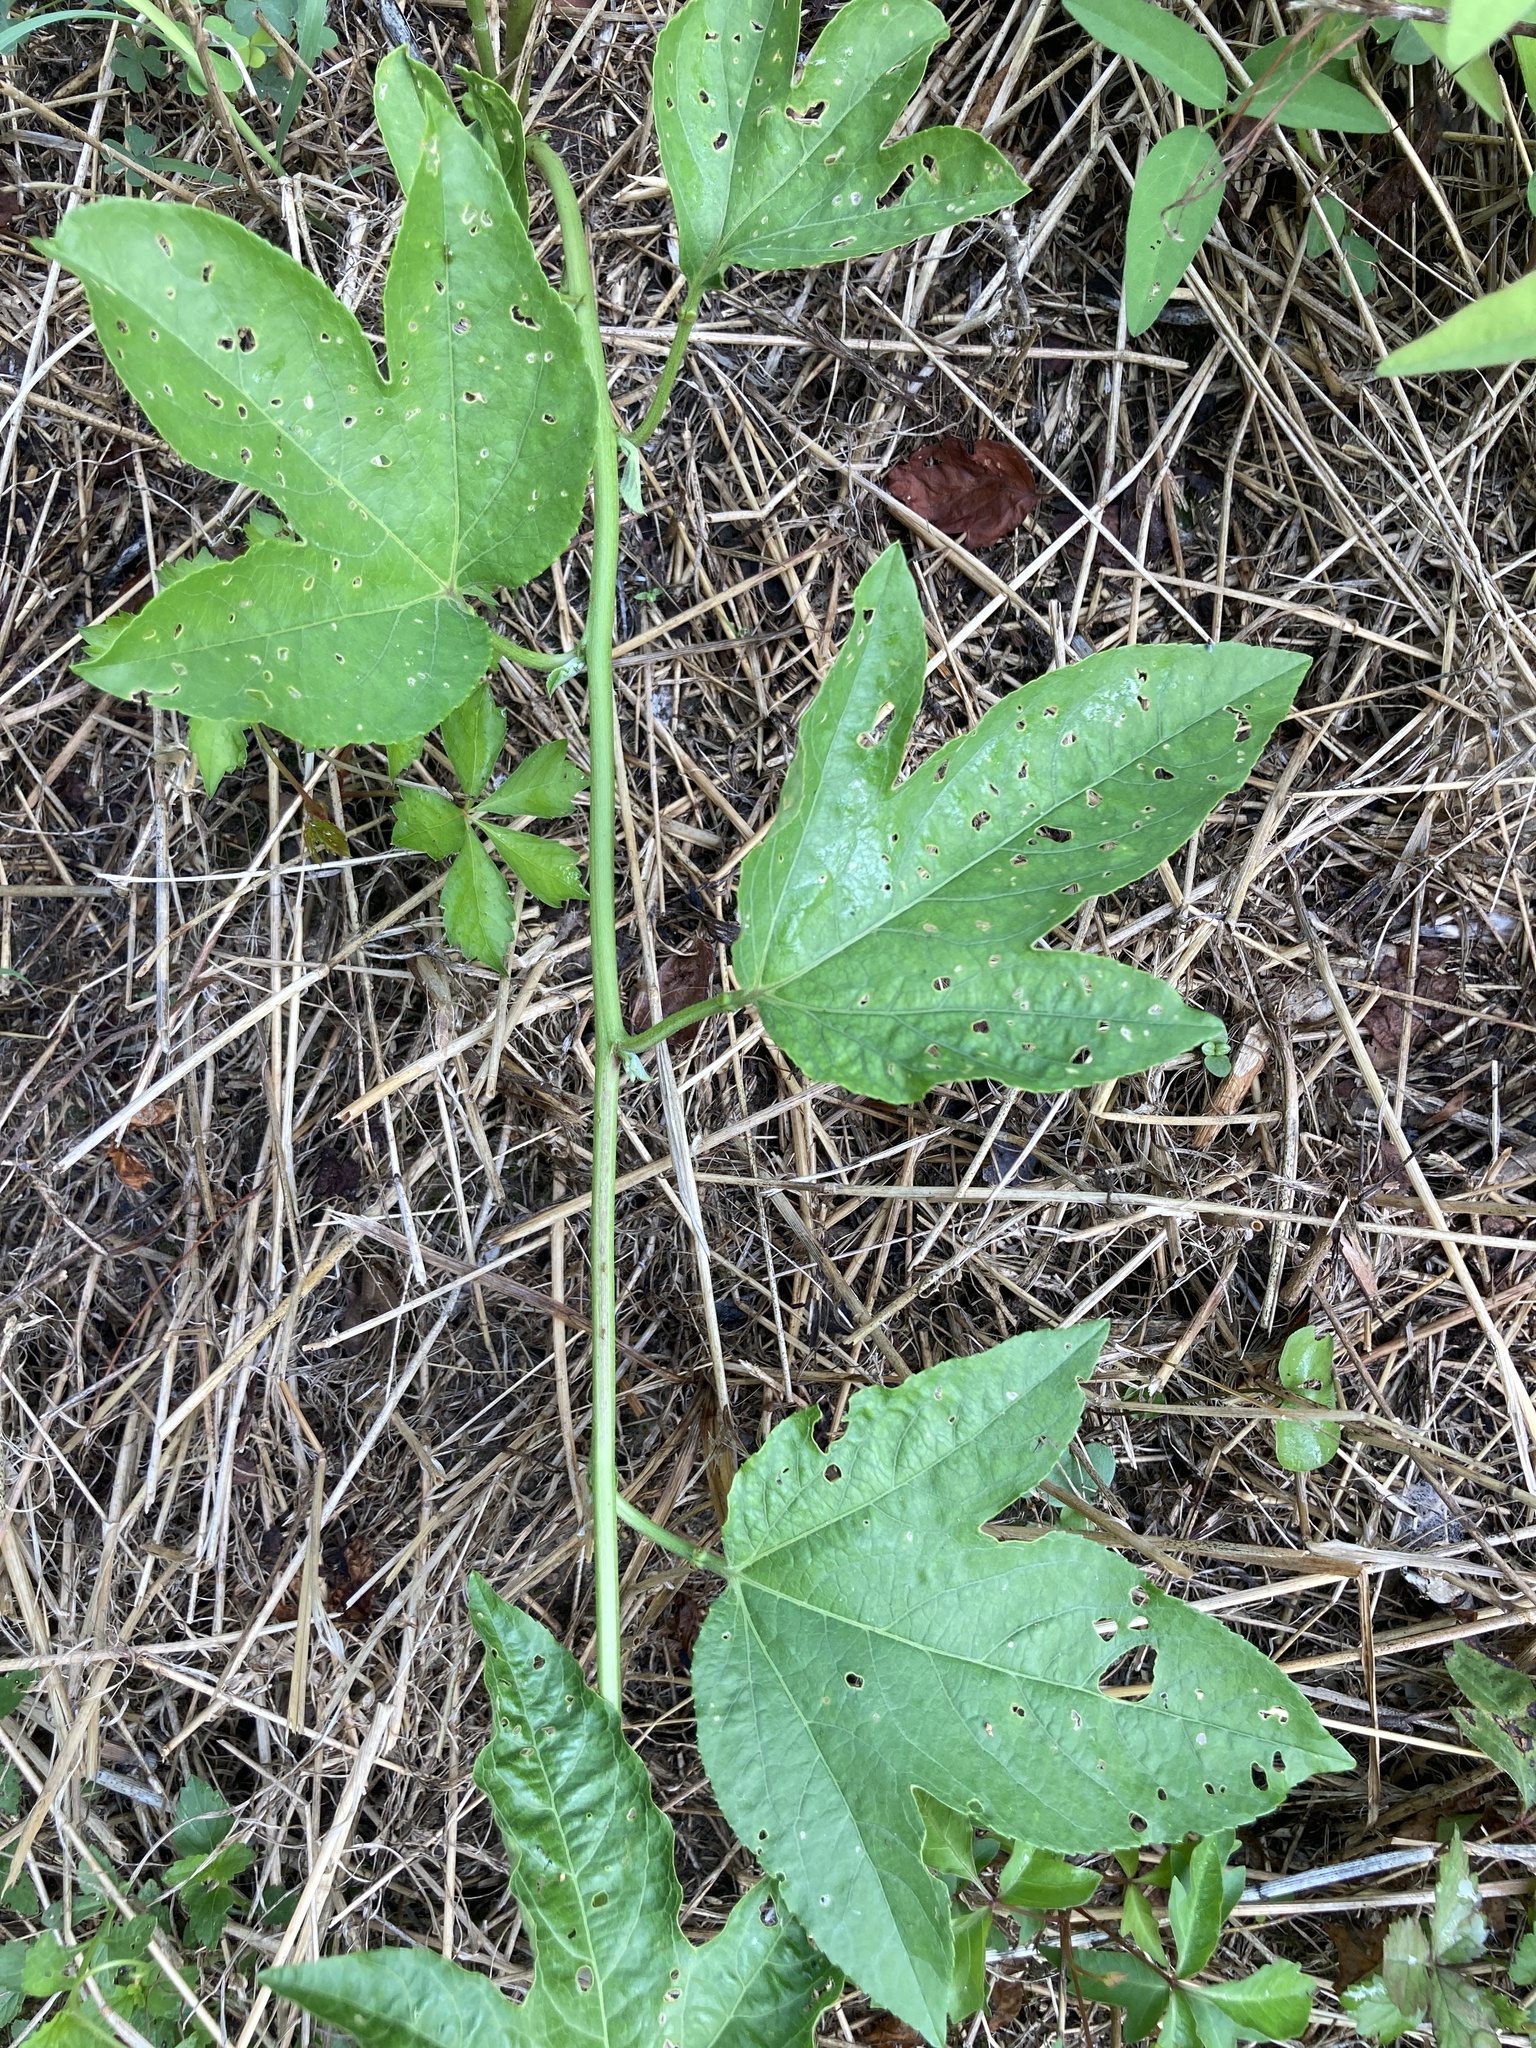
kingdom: Plantae
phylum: Tracheophyta
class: Magnoliopsida
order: Malpighiales
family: Passifloraceae
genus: Passiflora
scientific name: Passiflora incarnata
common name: Apricot-vine
